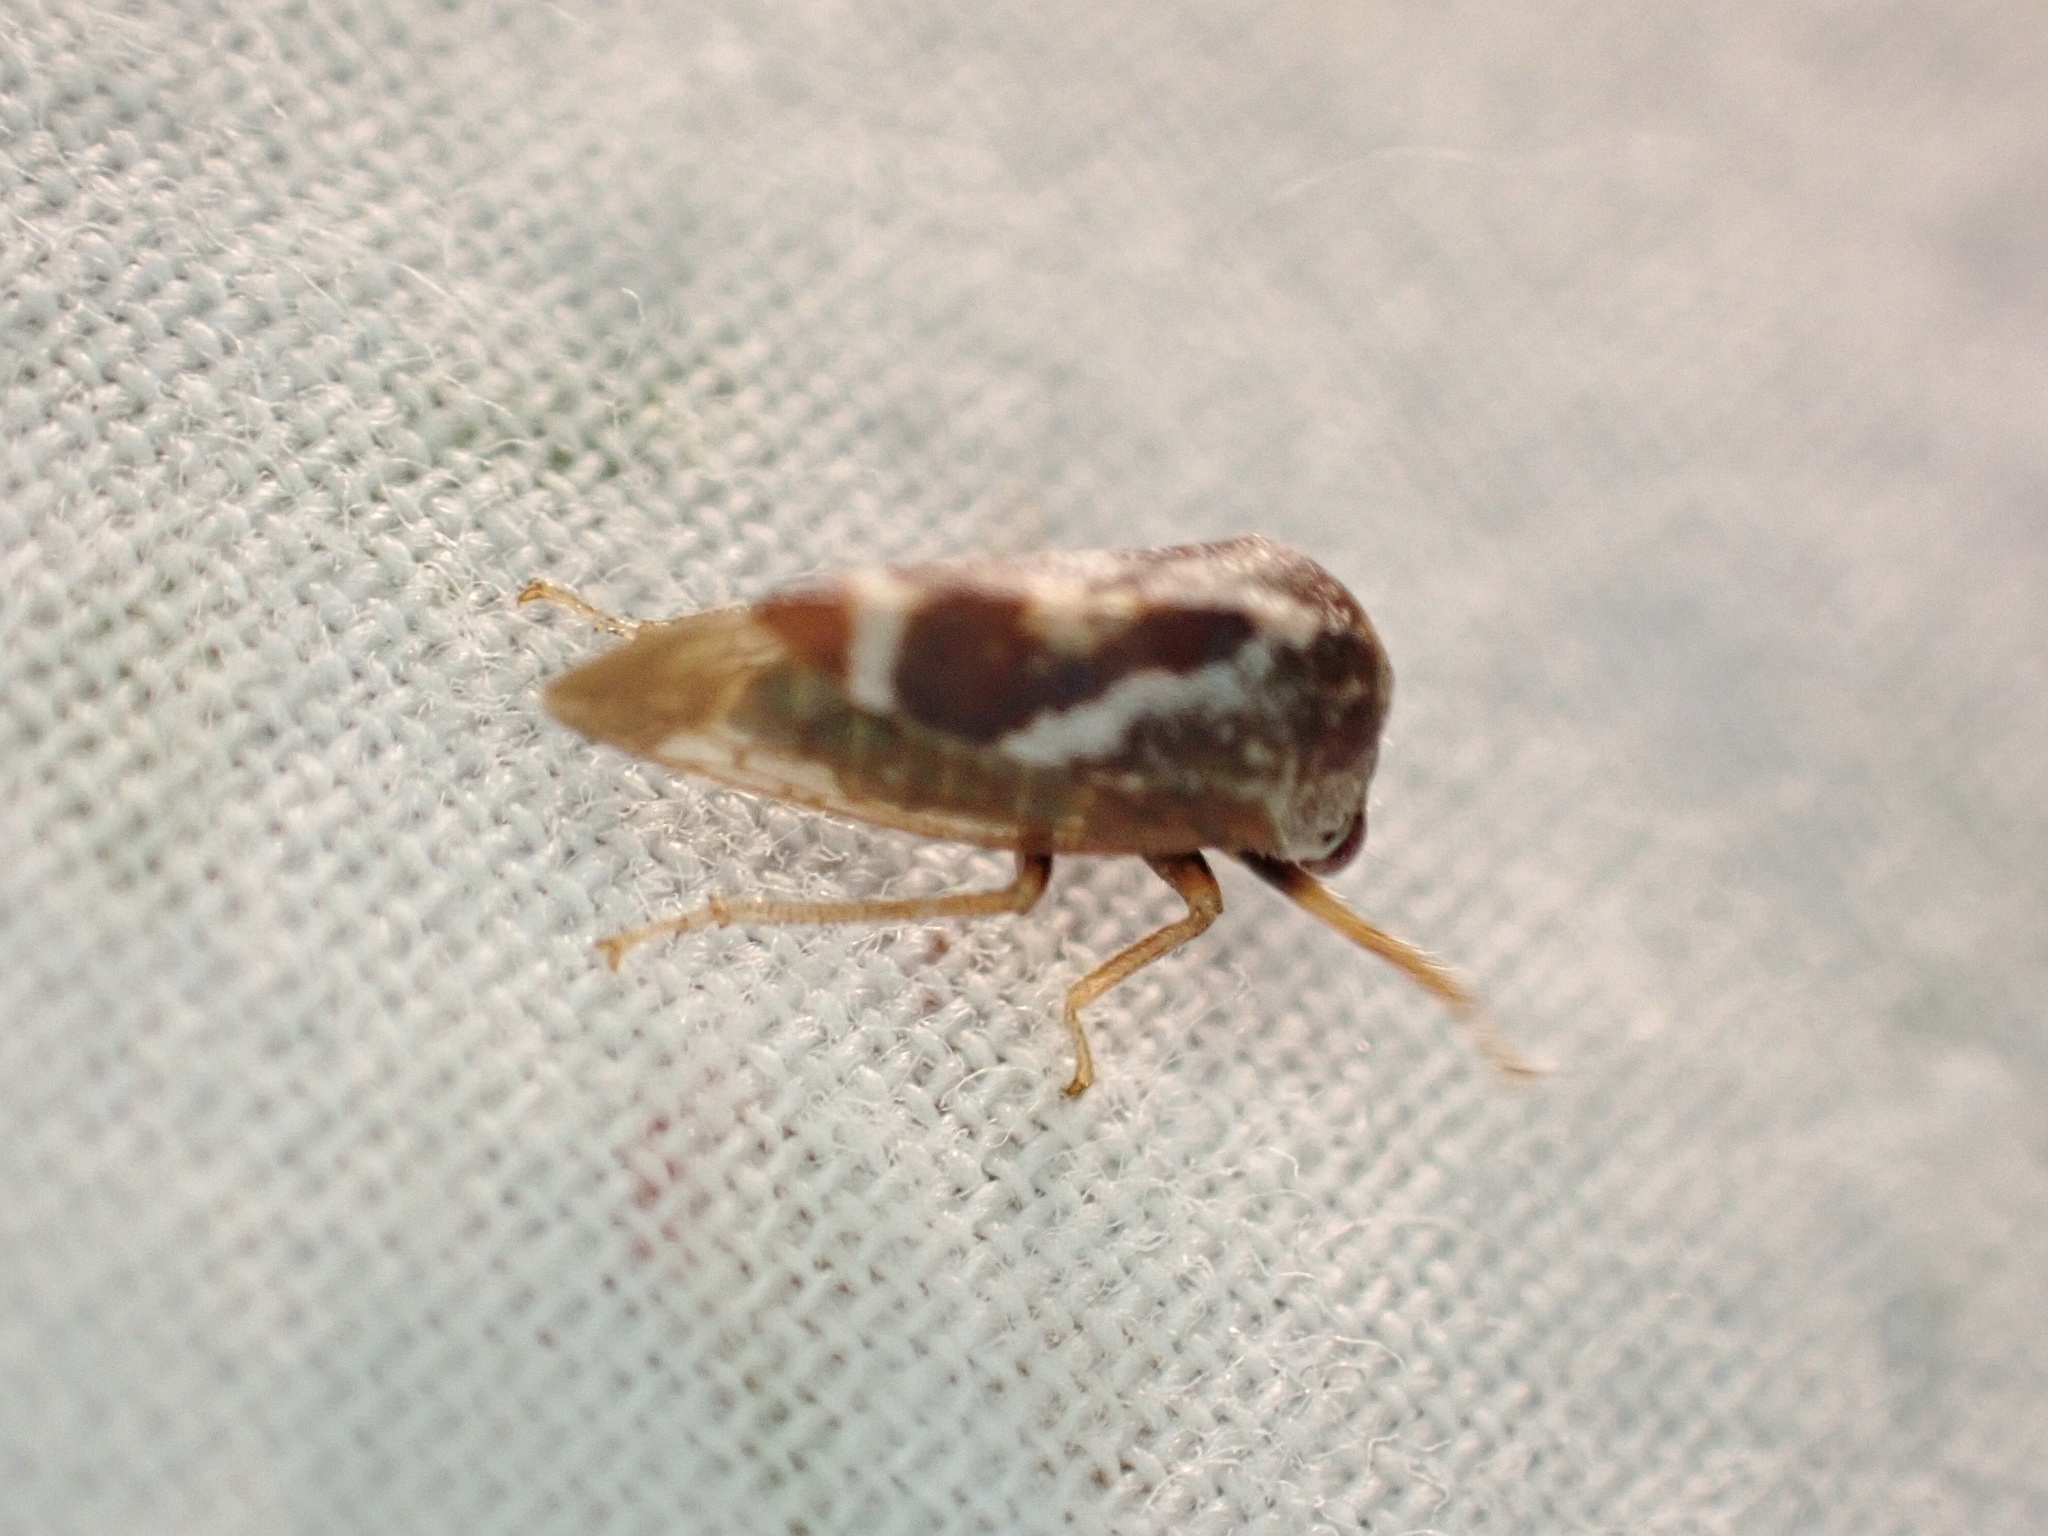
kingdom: Animalia
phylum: Arthropoda
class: Insecta
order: Hemiptera
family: Membracidae
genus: Cyrtolobus
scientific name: Cyrtolobus vau
